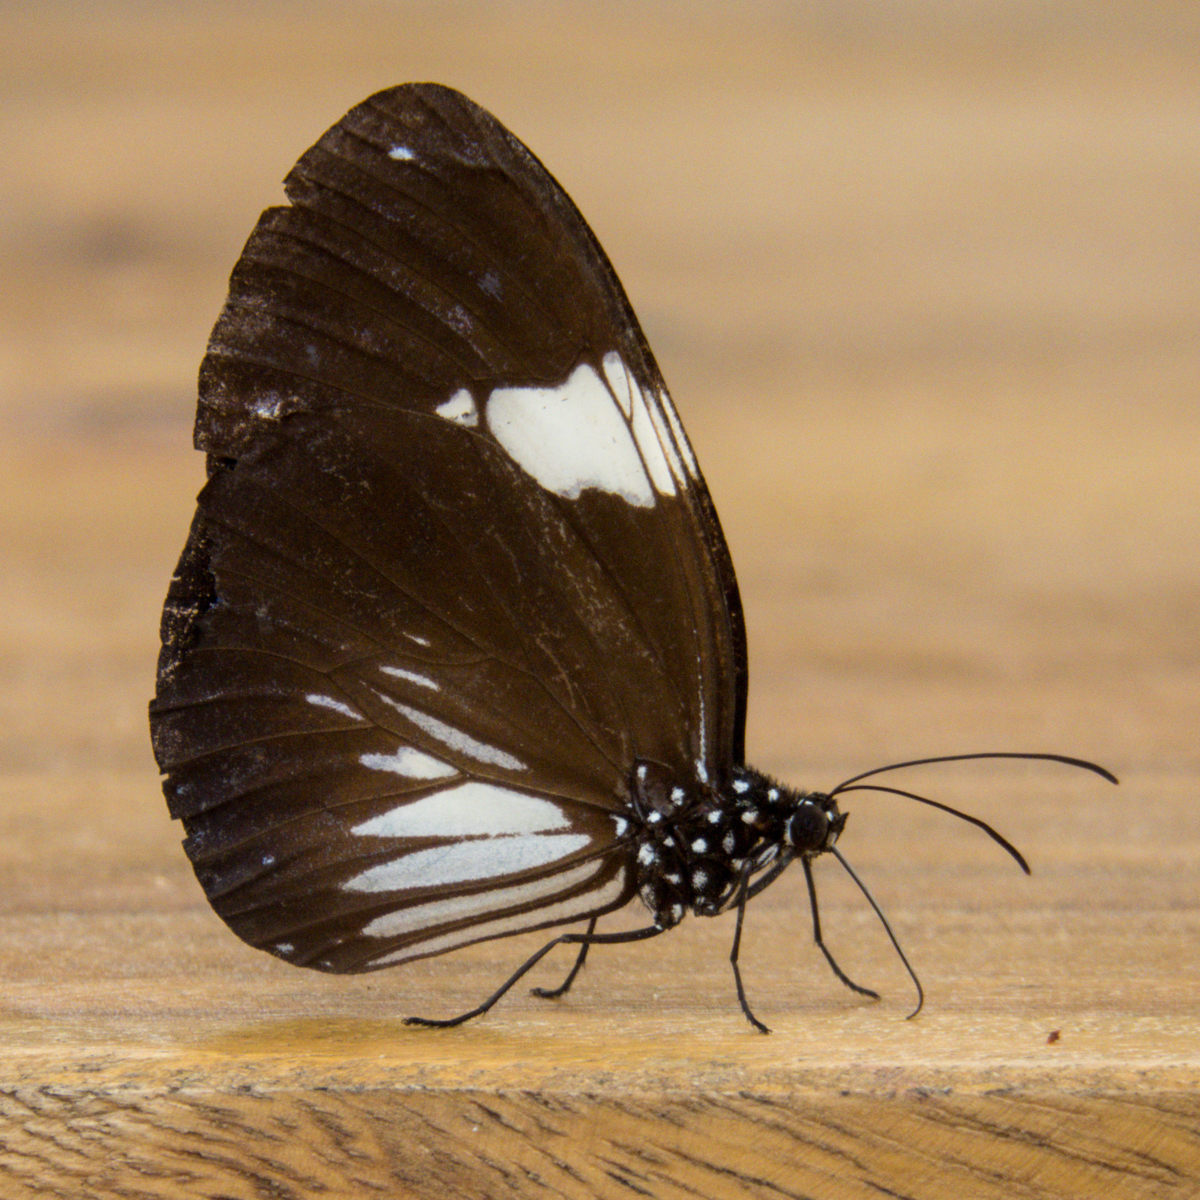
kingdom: Animalia
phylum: Arthropoda
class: Insecta
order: Lepidoptera
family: Nymphalidae
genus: Euploea
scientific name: Euploea radamanthus
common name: Magpie crow butterfly
